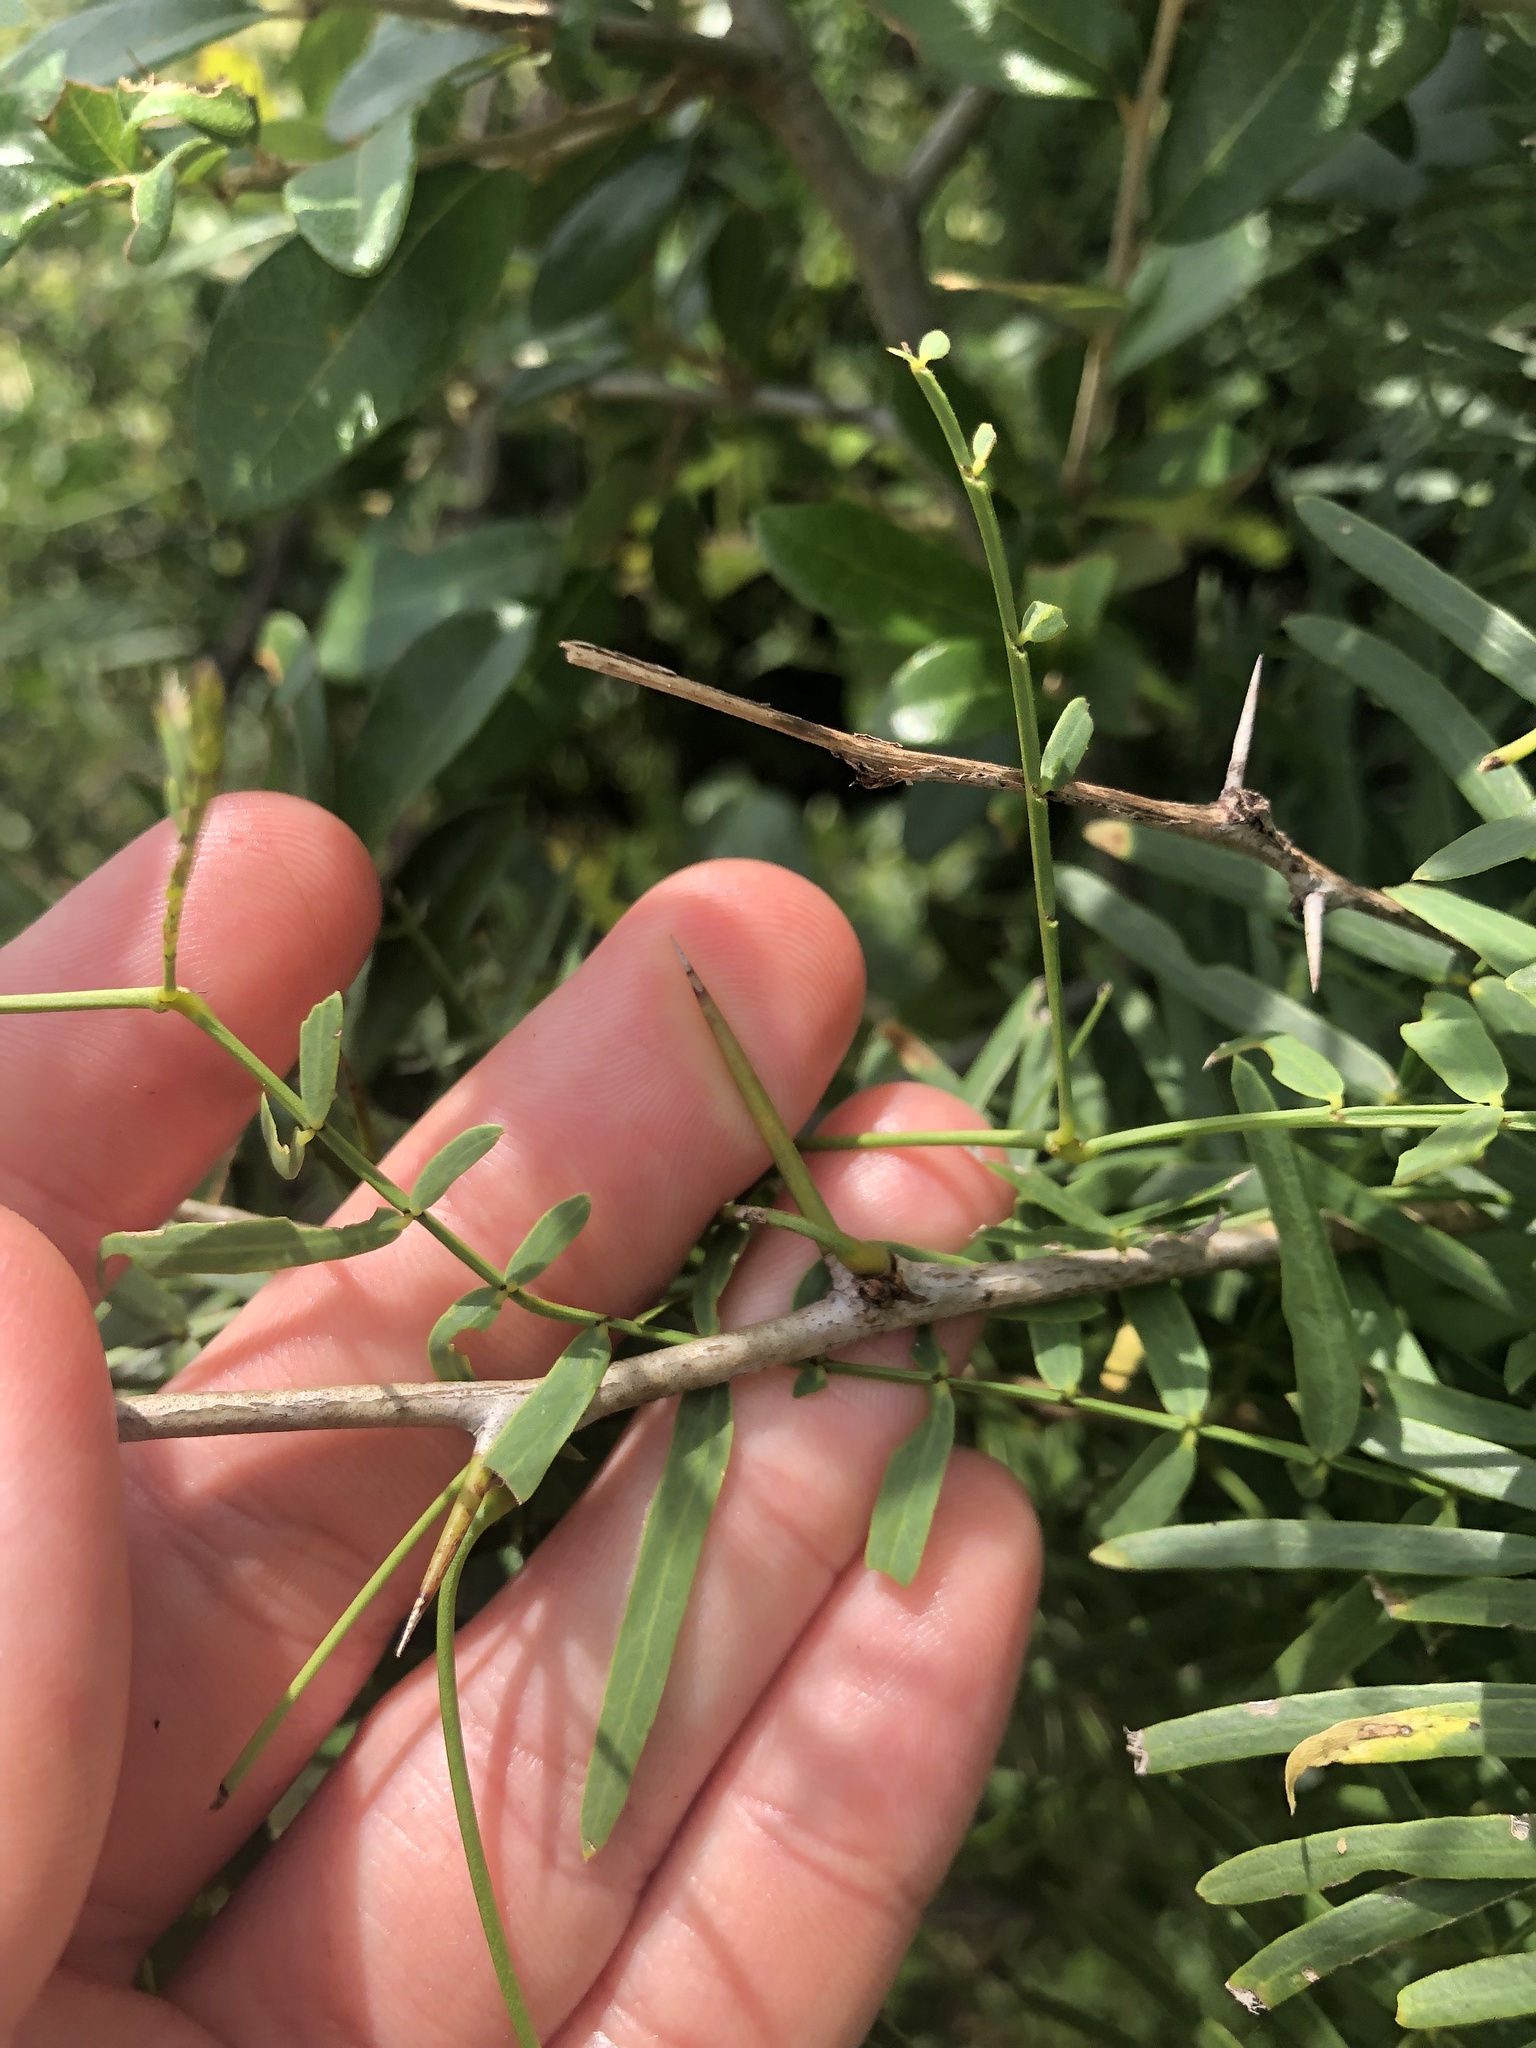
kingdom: Plantae
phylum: Tracheophyta
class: Magnoliopsida
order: Fabales
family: Fabaceae
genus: Prosopis
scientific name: Prosopis glandulosa
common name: Honey mesquite
